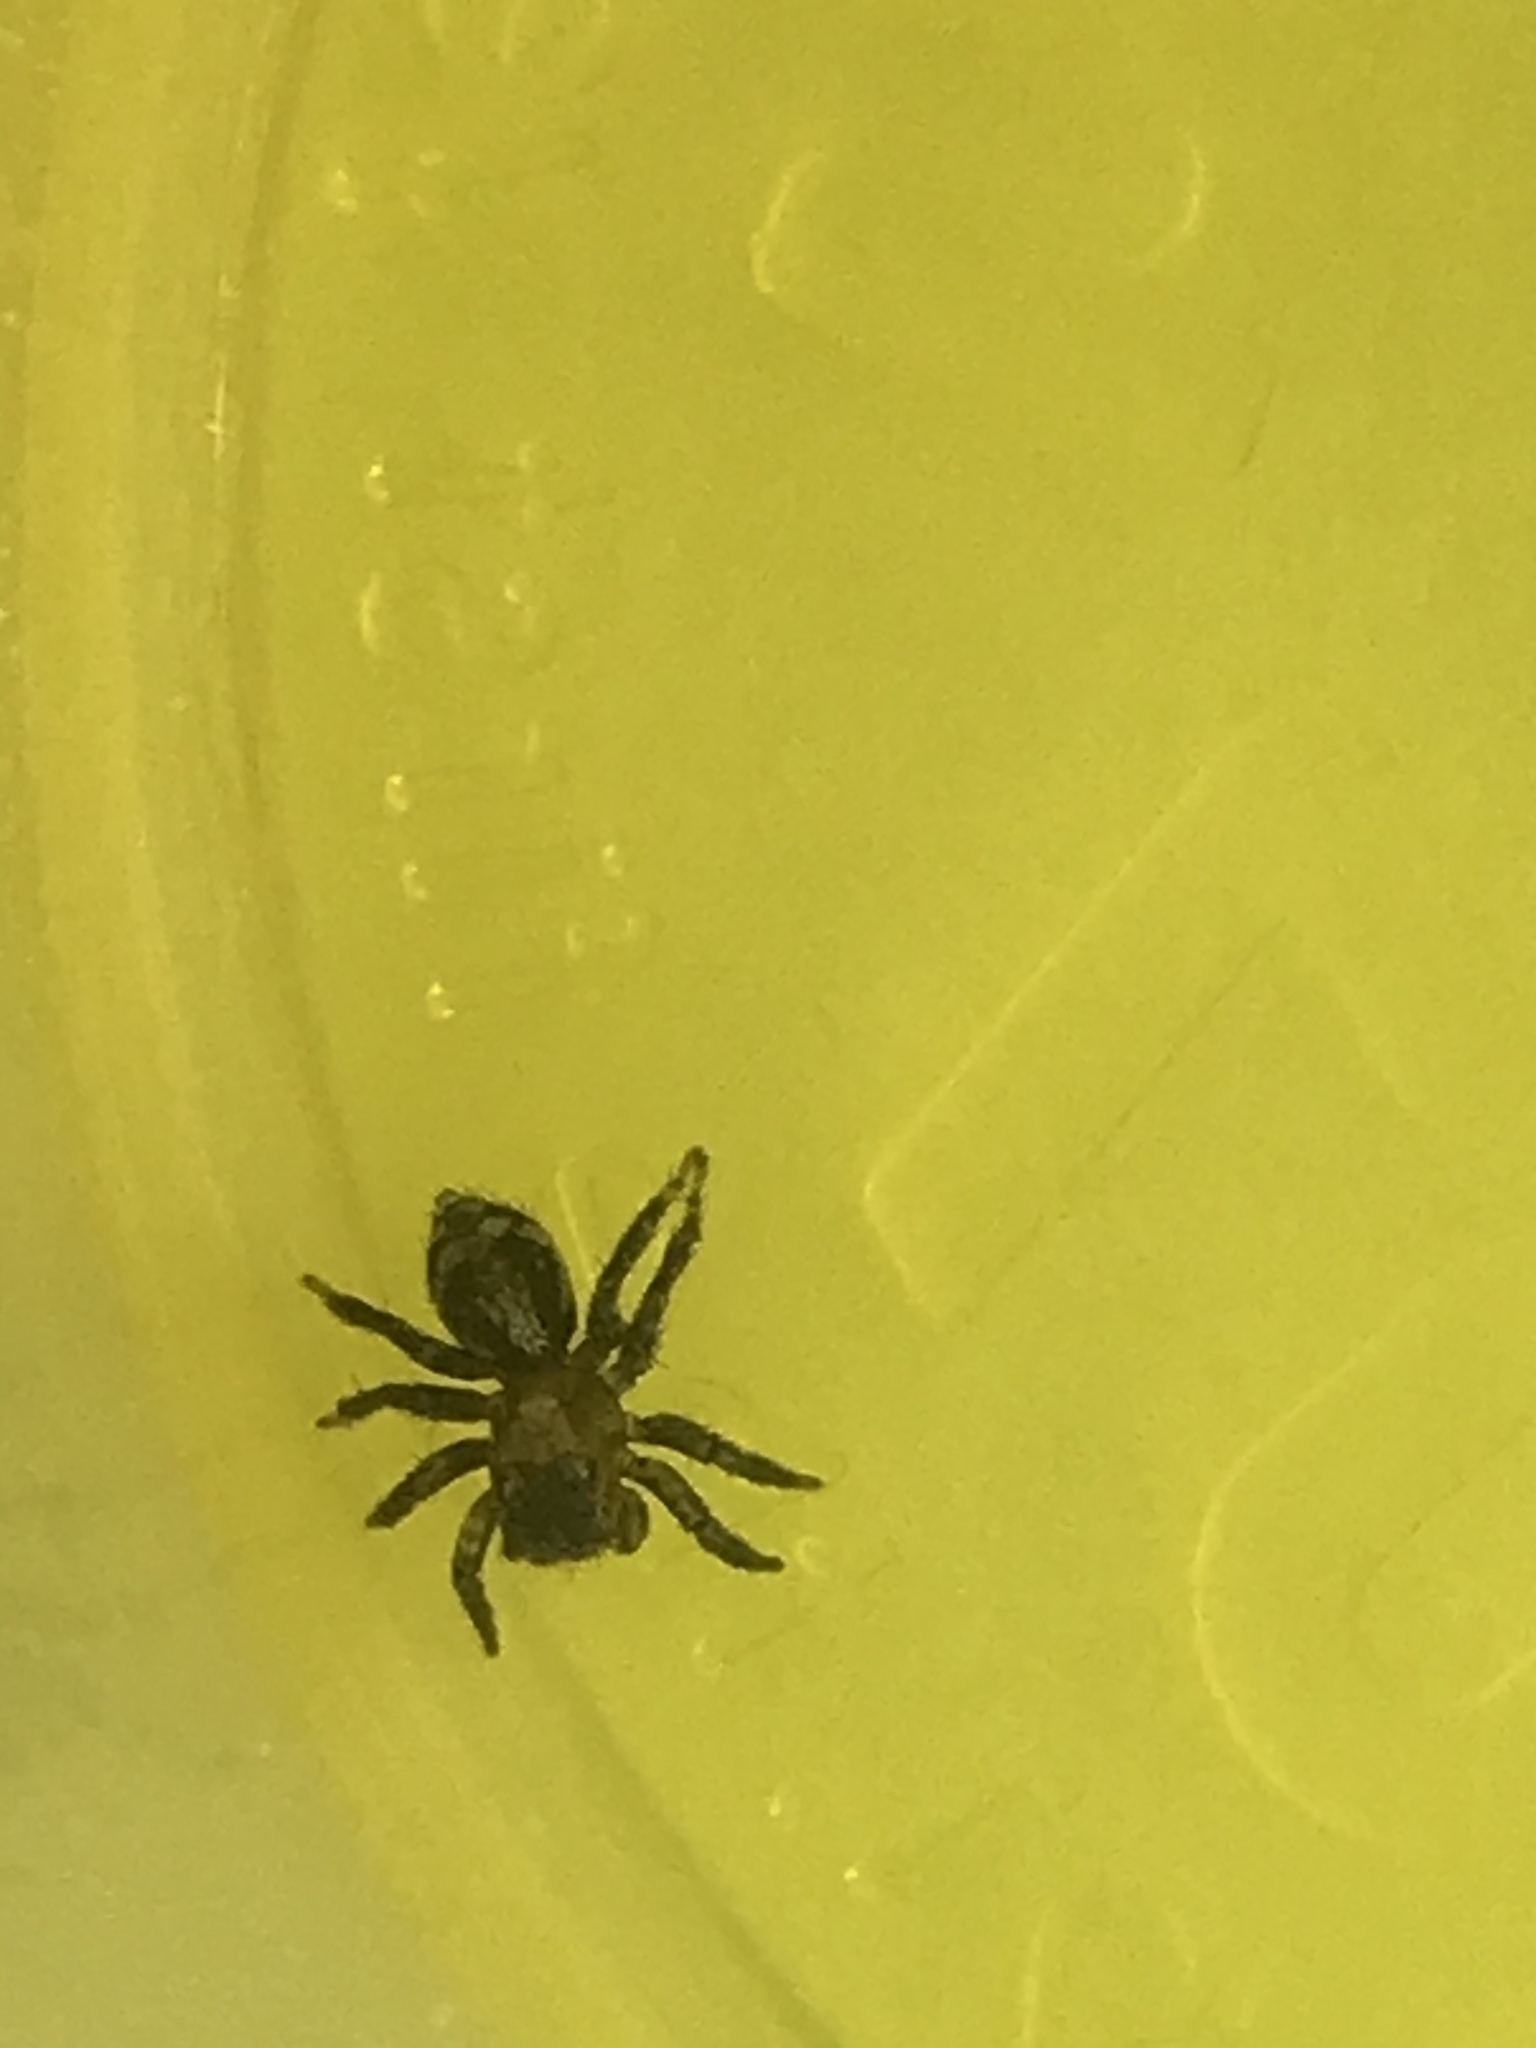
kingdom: Animalia
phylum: Arthropoda
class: Arachnida
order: Araneae
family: Salticidae
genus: Naphrys
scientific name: Naphrys pulex
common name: Flea jumping spider
